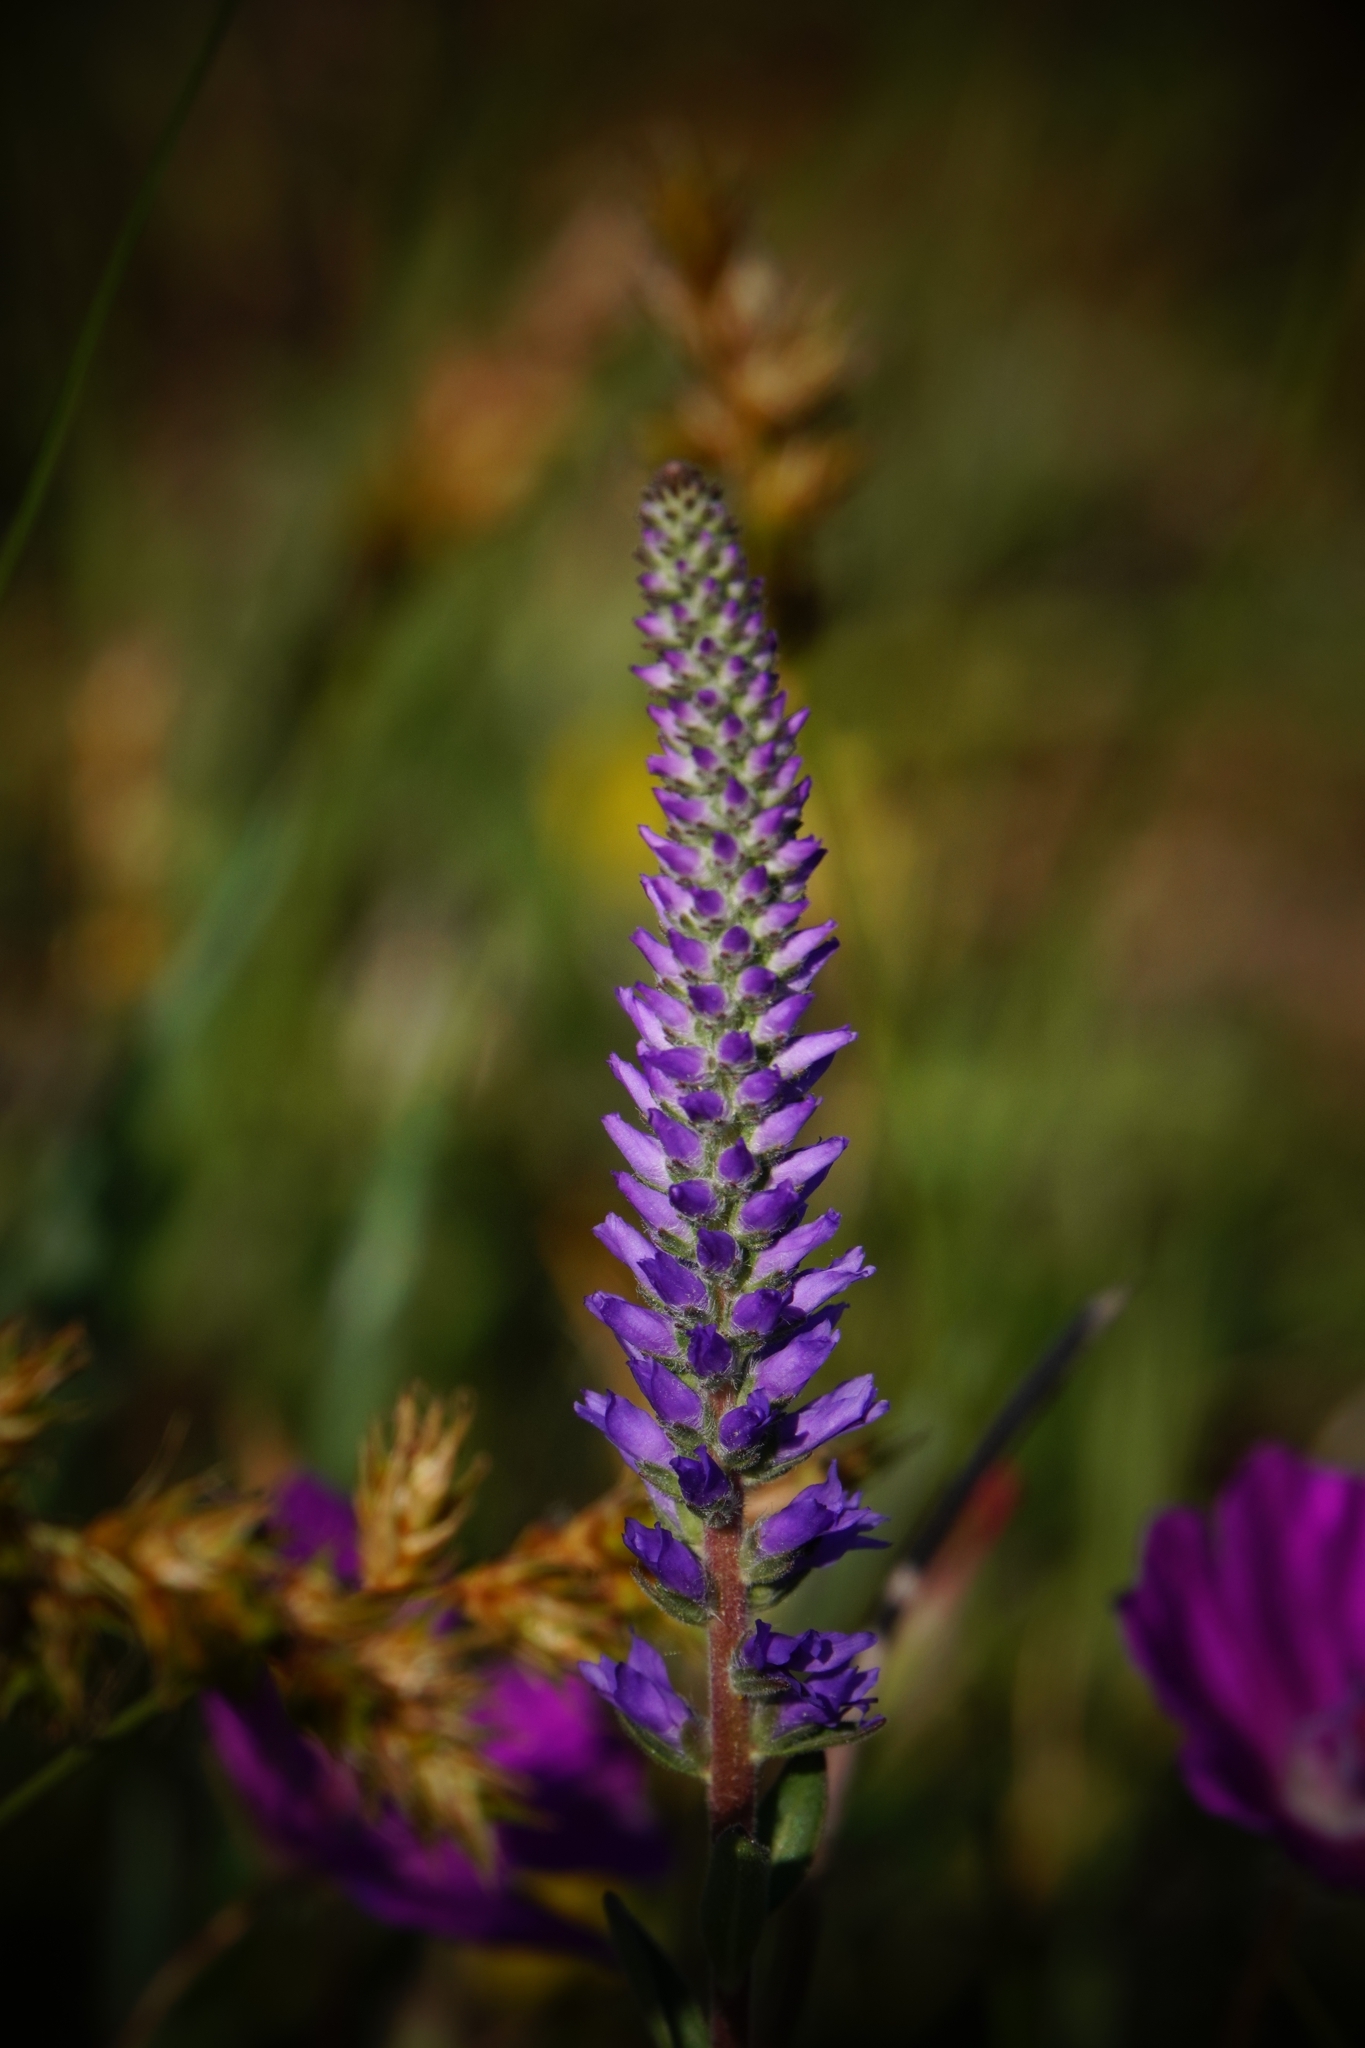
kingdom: Plantae
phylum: Tracheophyta
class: Magnoliopsida
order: Lamiales
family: Plantaginaceae
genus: Veronica
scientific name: Veronica spicata
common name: Spiked speedwell
